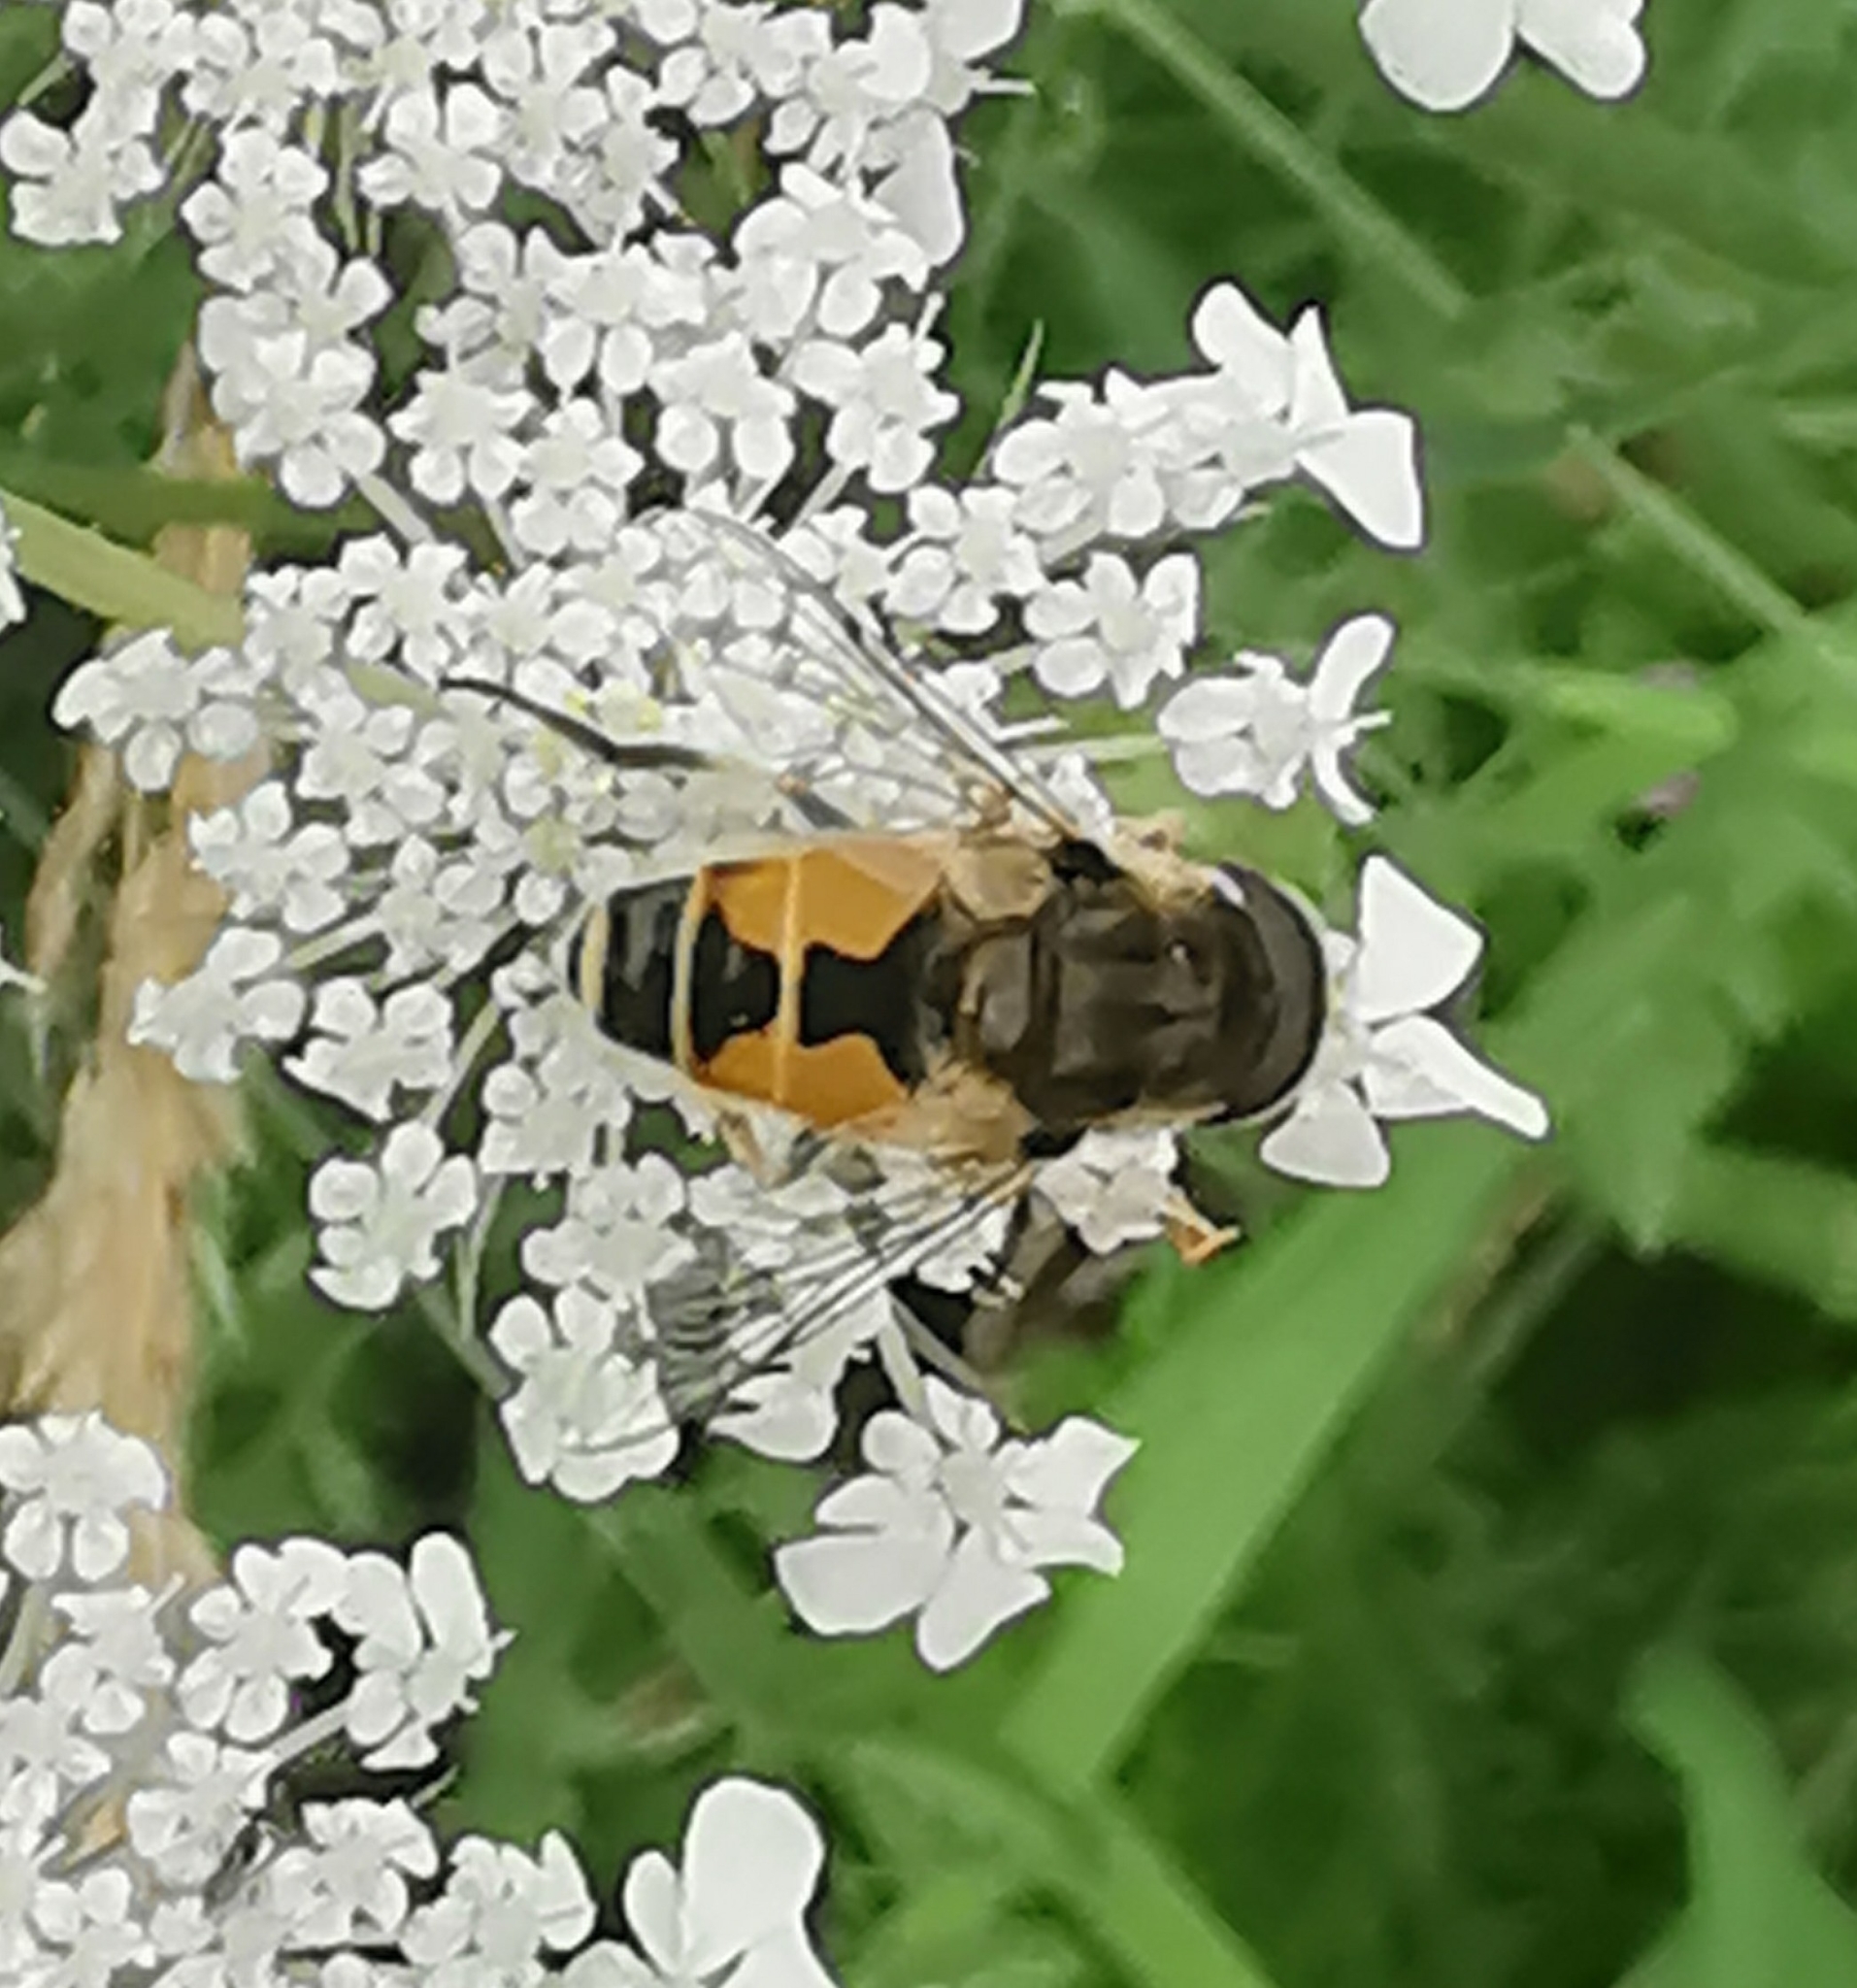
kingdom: Animalia
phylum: Arthropoda
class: Insecta
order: Diptera
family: Syrphidae
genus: Eristalis
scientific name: Eristalis arbustorum
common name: Hover fly
